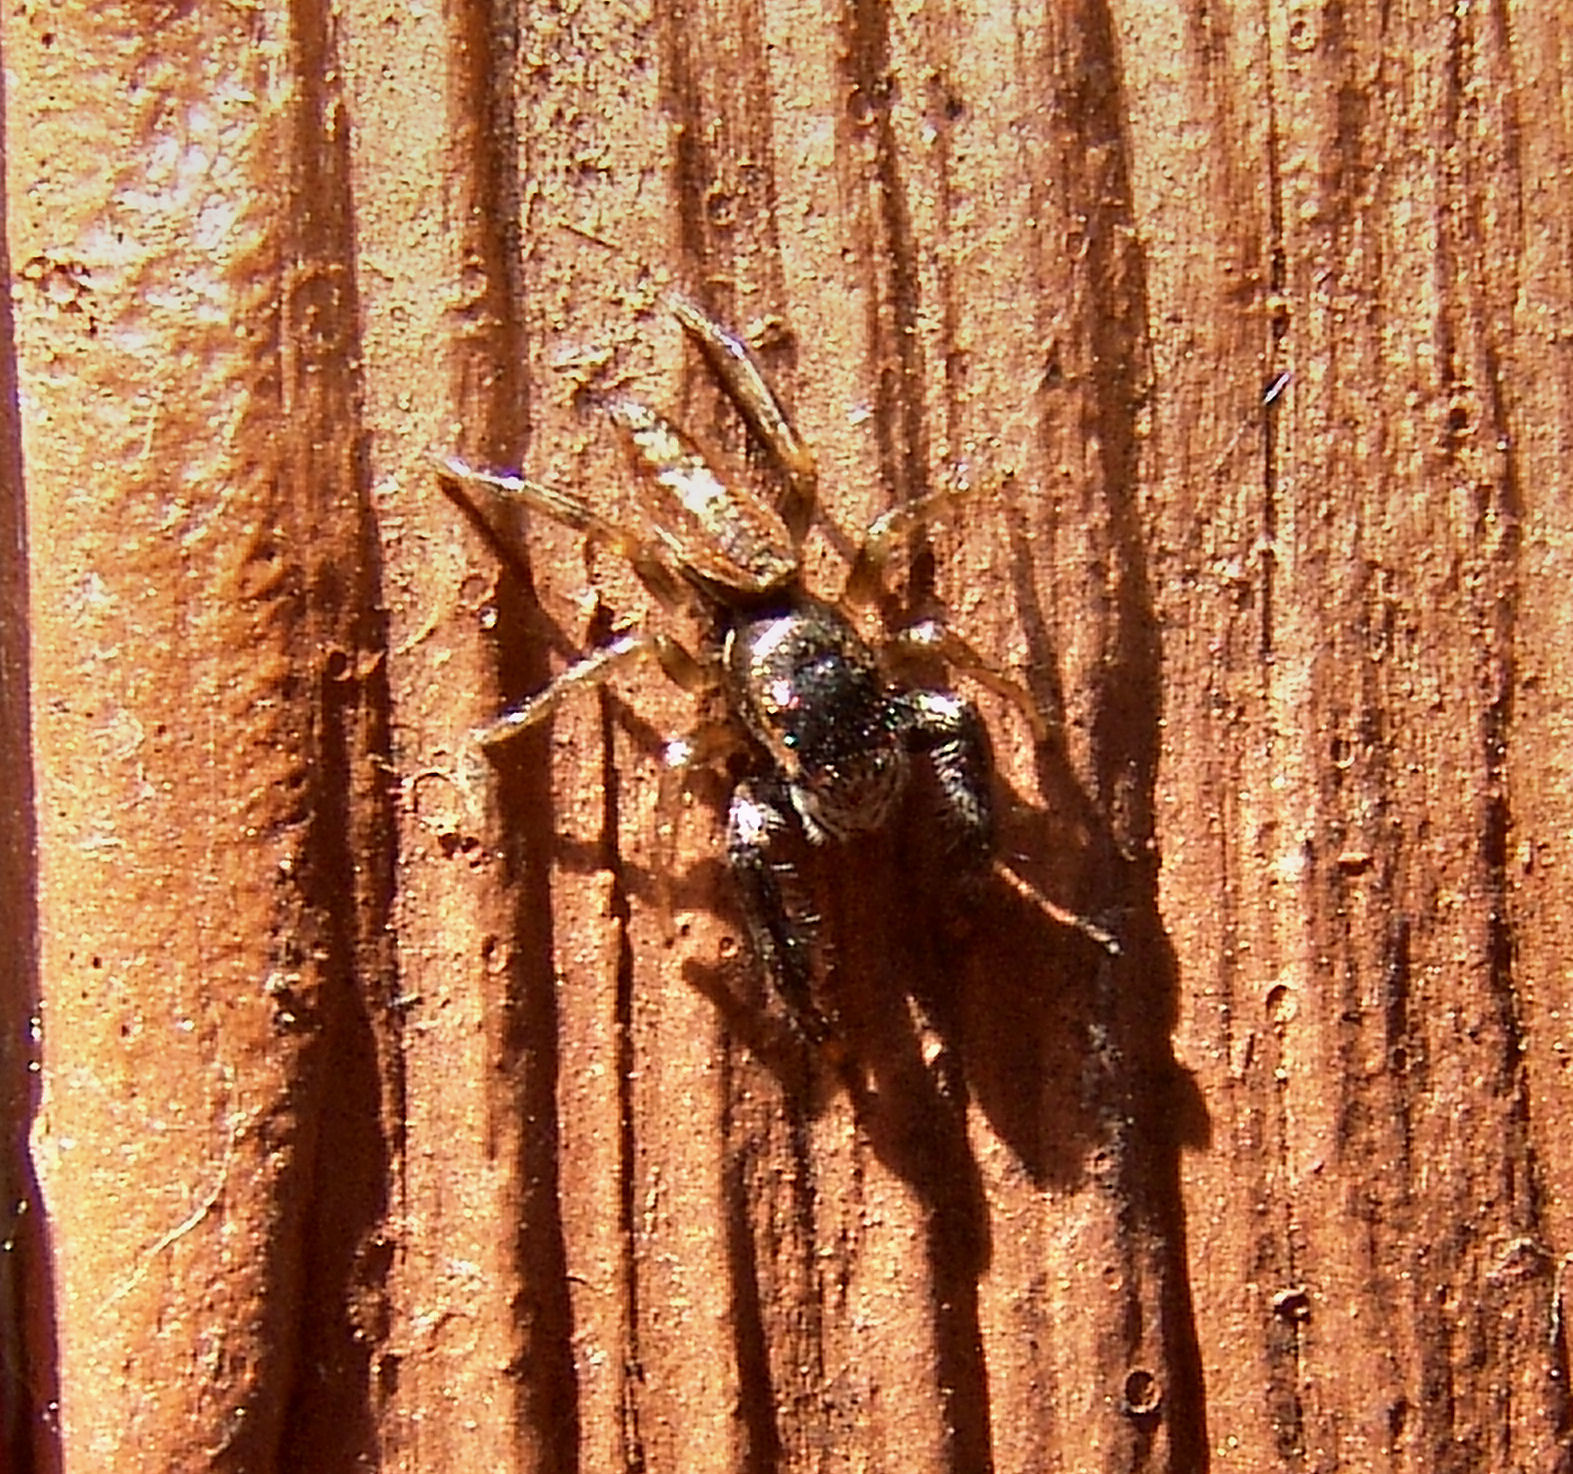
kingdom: Animalia
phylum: Arthropoda
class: Arachnida
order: Araneae
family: Salticidae
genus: Marpissa
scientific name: Marpissa formosa
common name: Short-bellied slender jumping spider
